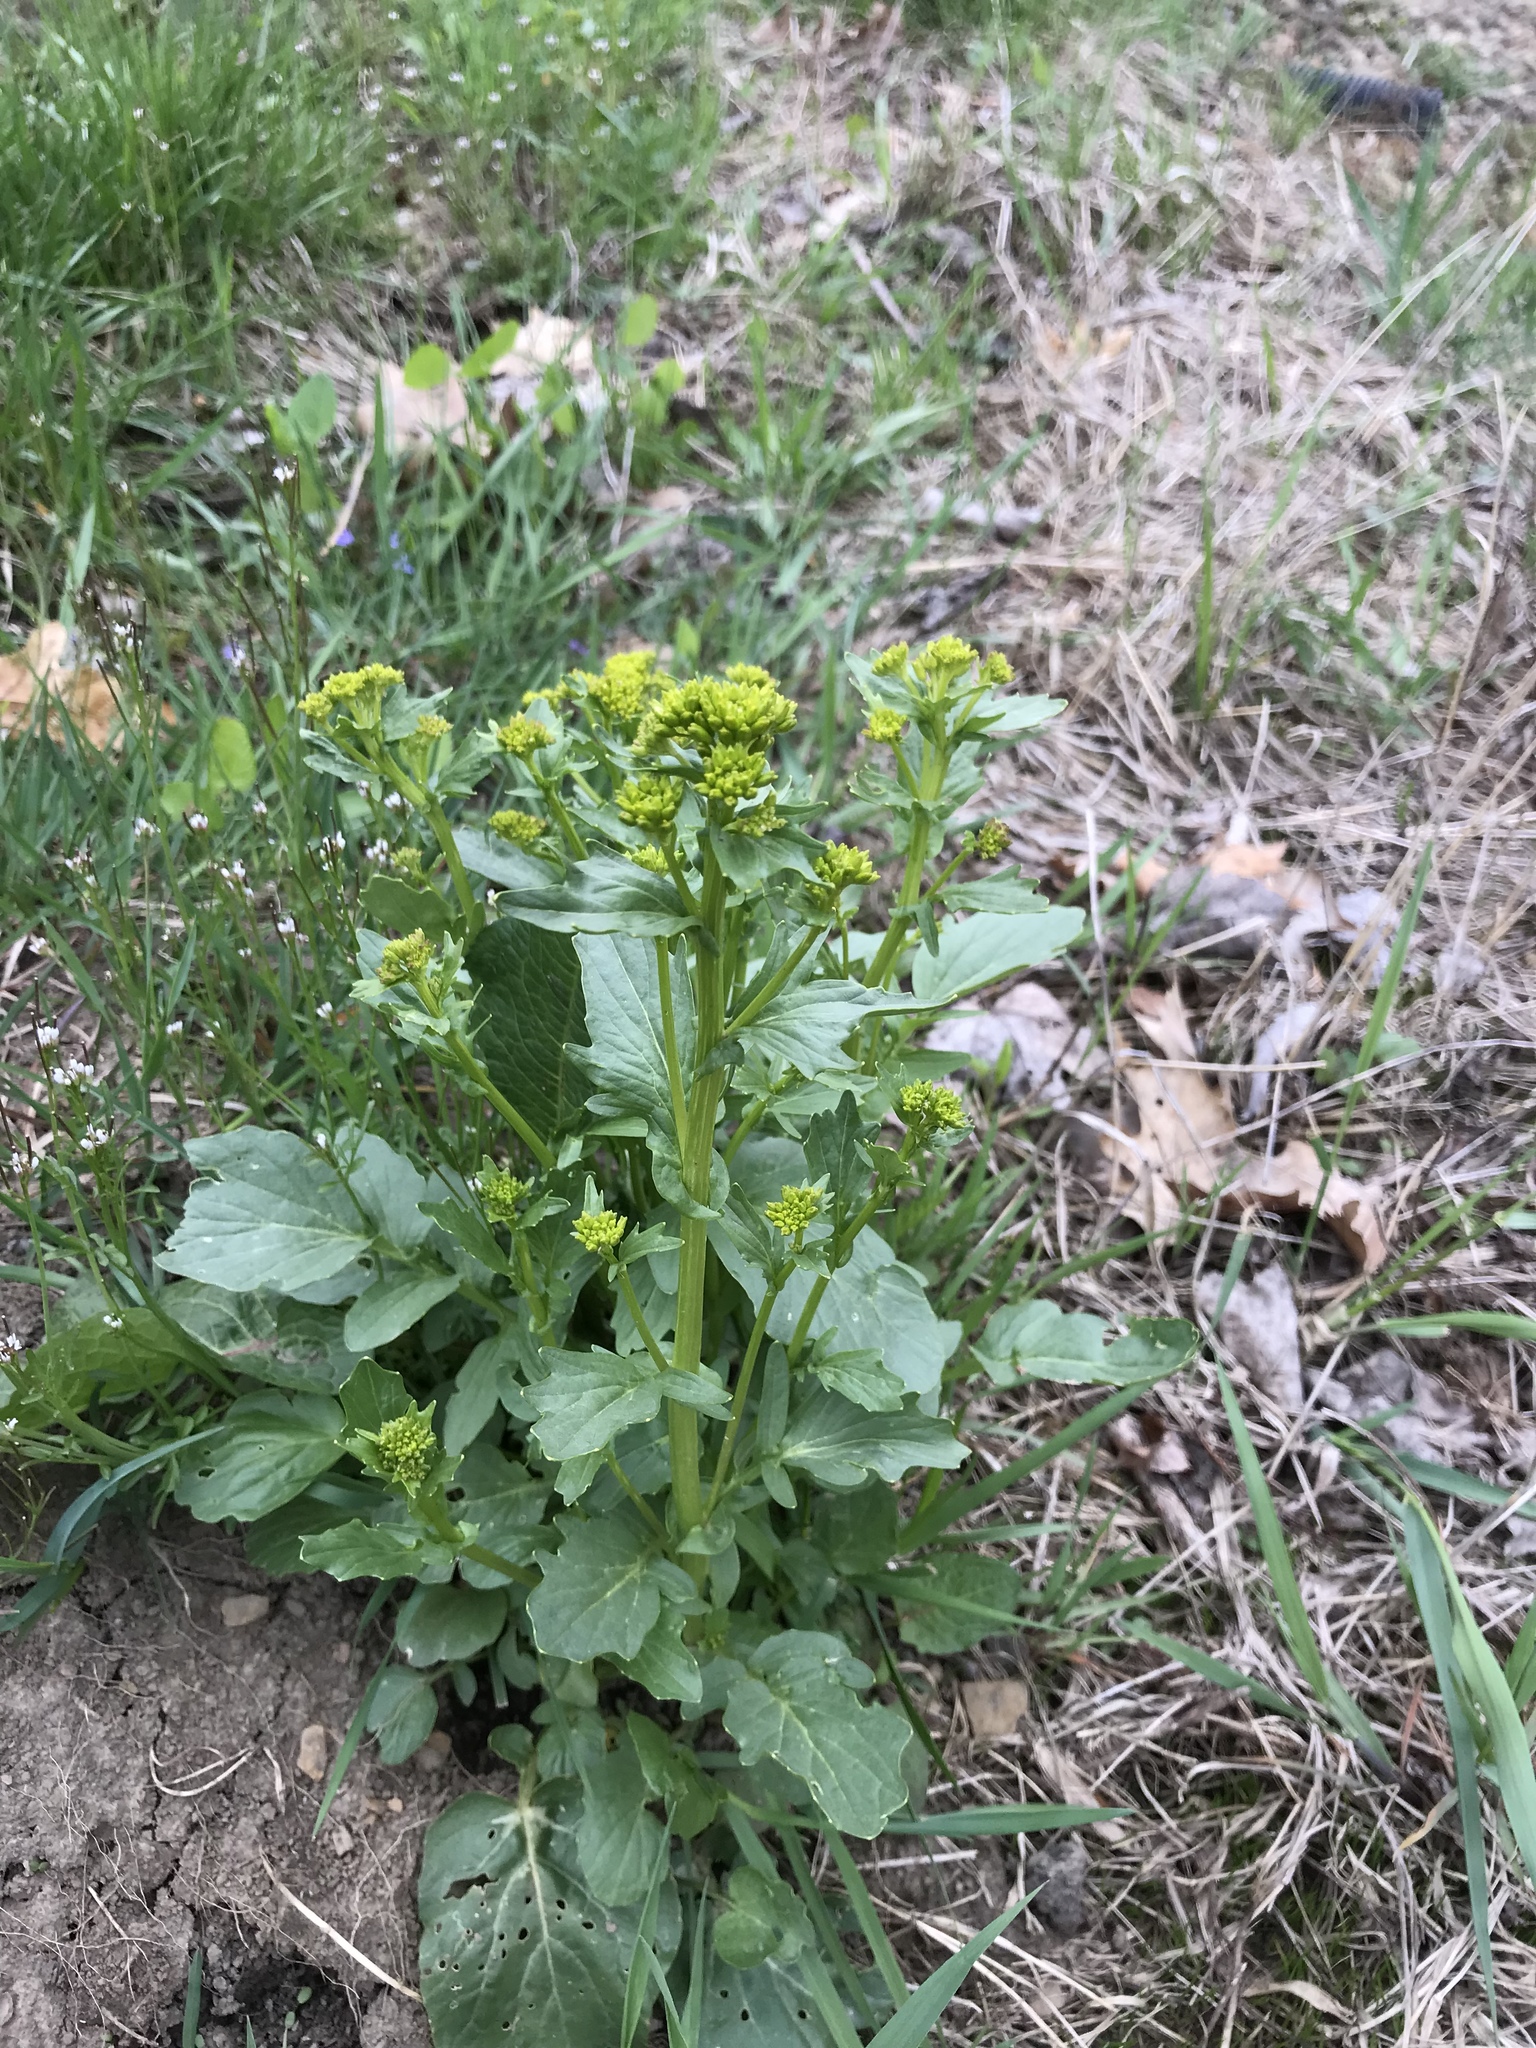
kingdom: Plantae
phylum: Tracheophyta
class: Magnoliopsida
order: Brassicales
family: Brassicaceae
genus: Barbarea
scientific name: Barbarea vulgaris
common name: Cressy-greens
